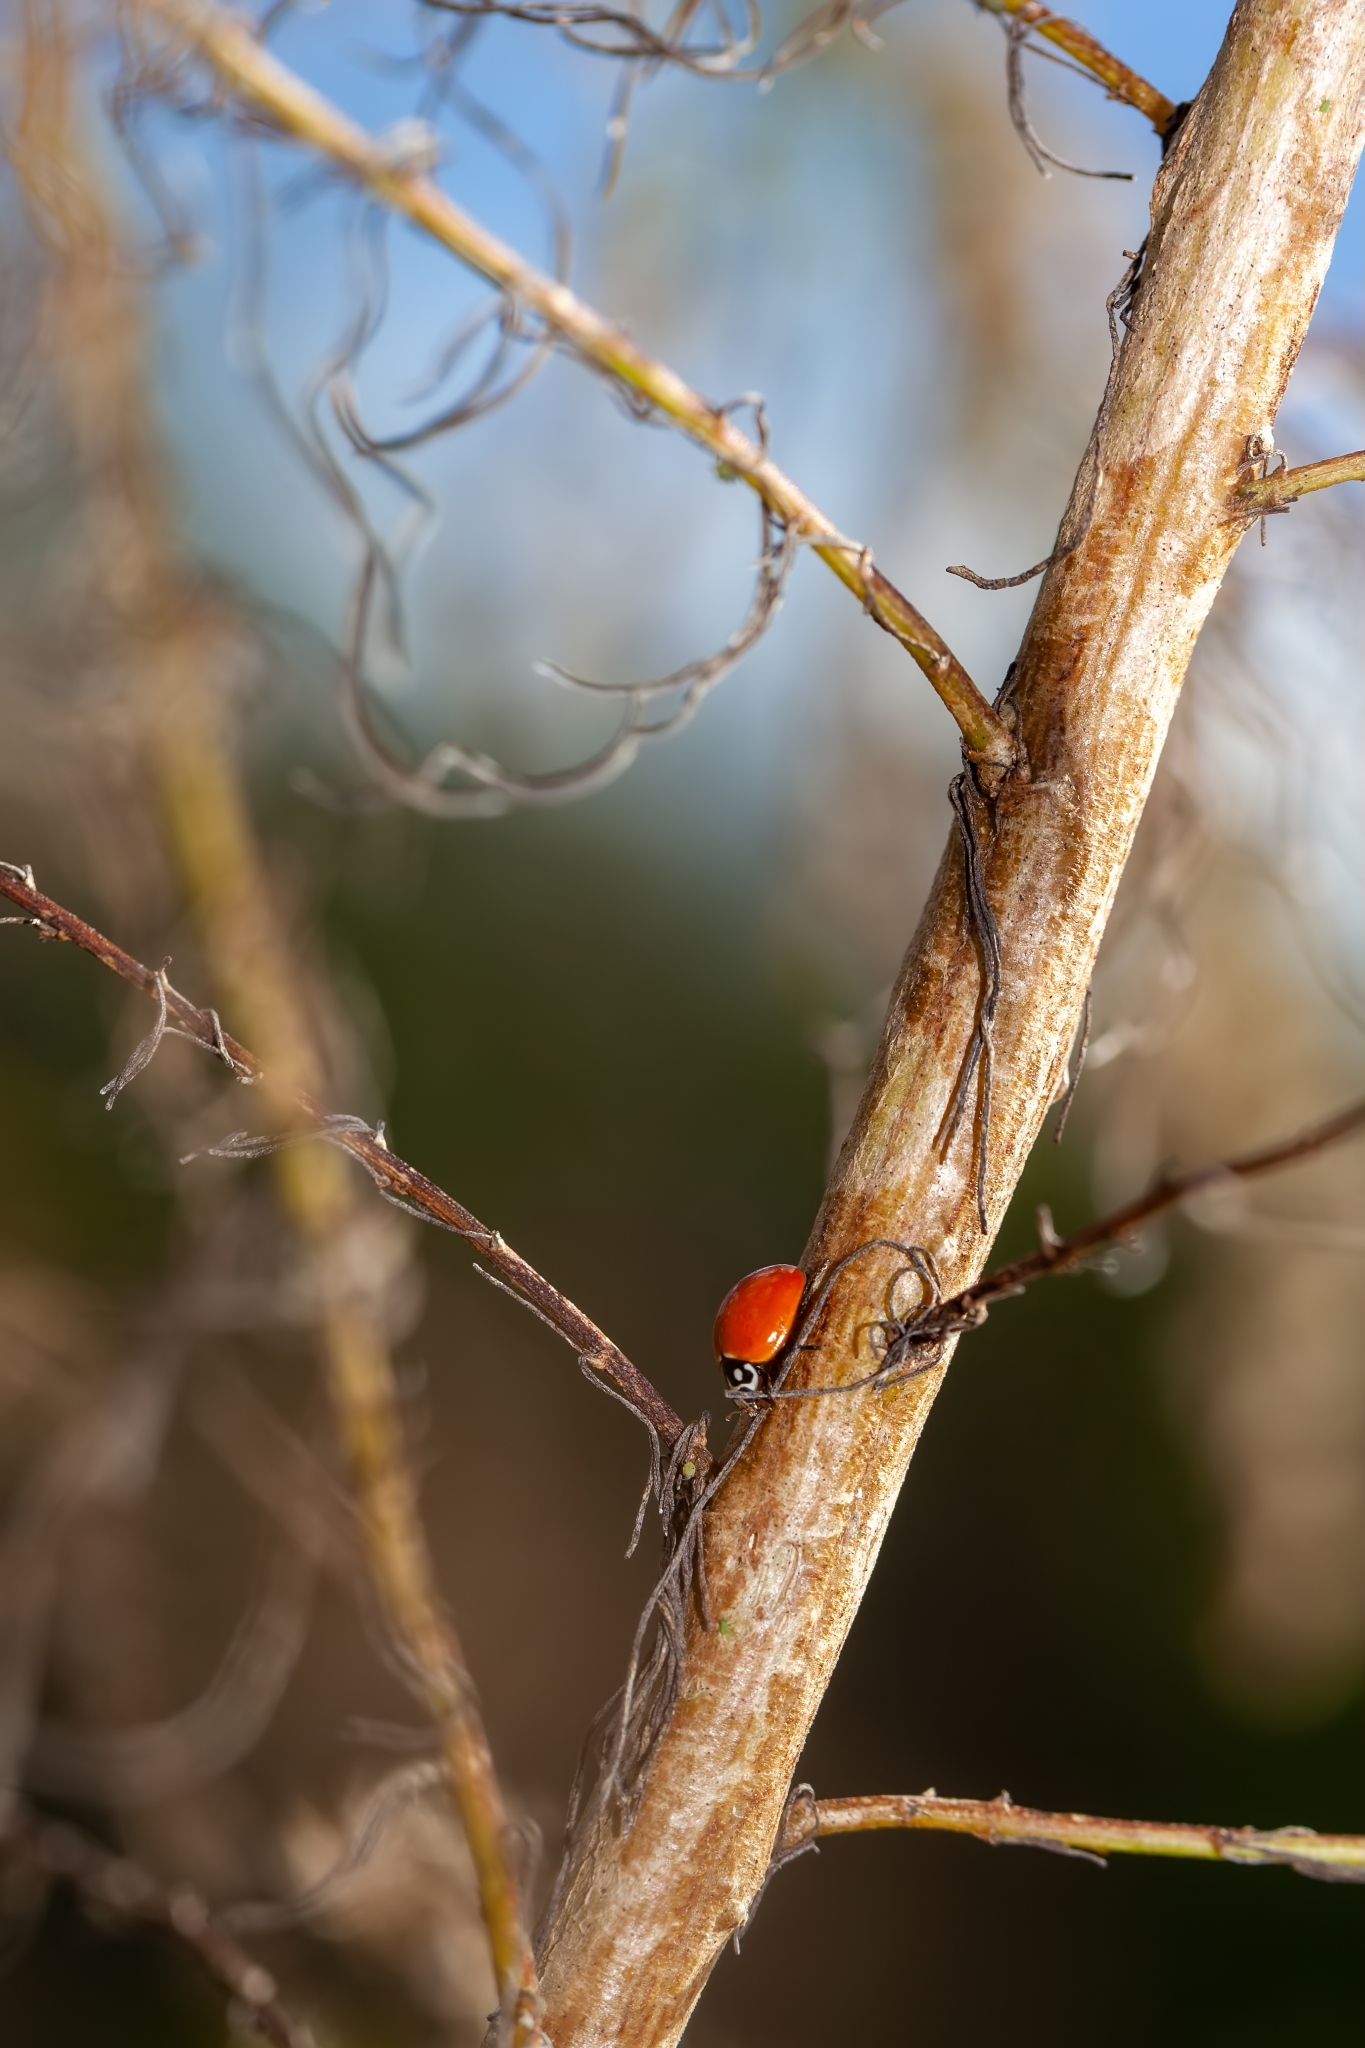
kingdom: Animalia
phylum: Arthropoda
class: Insecta
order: Coleoptera
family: Coccinellidae
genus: Cycloneda
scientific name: Cycloneda sanguinea
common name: Ladybird beetle
